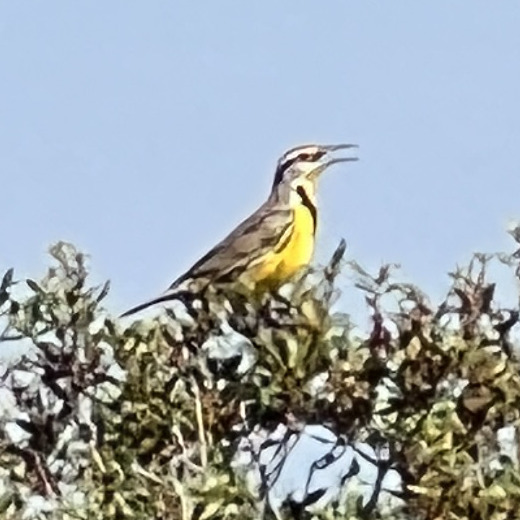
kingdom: Animalia
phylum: Chordata
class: Aves
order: Passeriformes
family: Icteridae
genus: Sturnella
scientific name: Sturnella magna
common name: Eastern meadowlark
